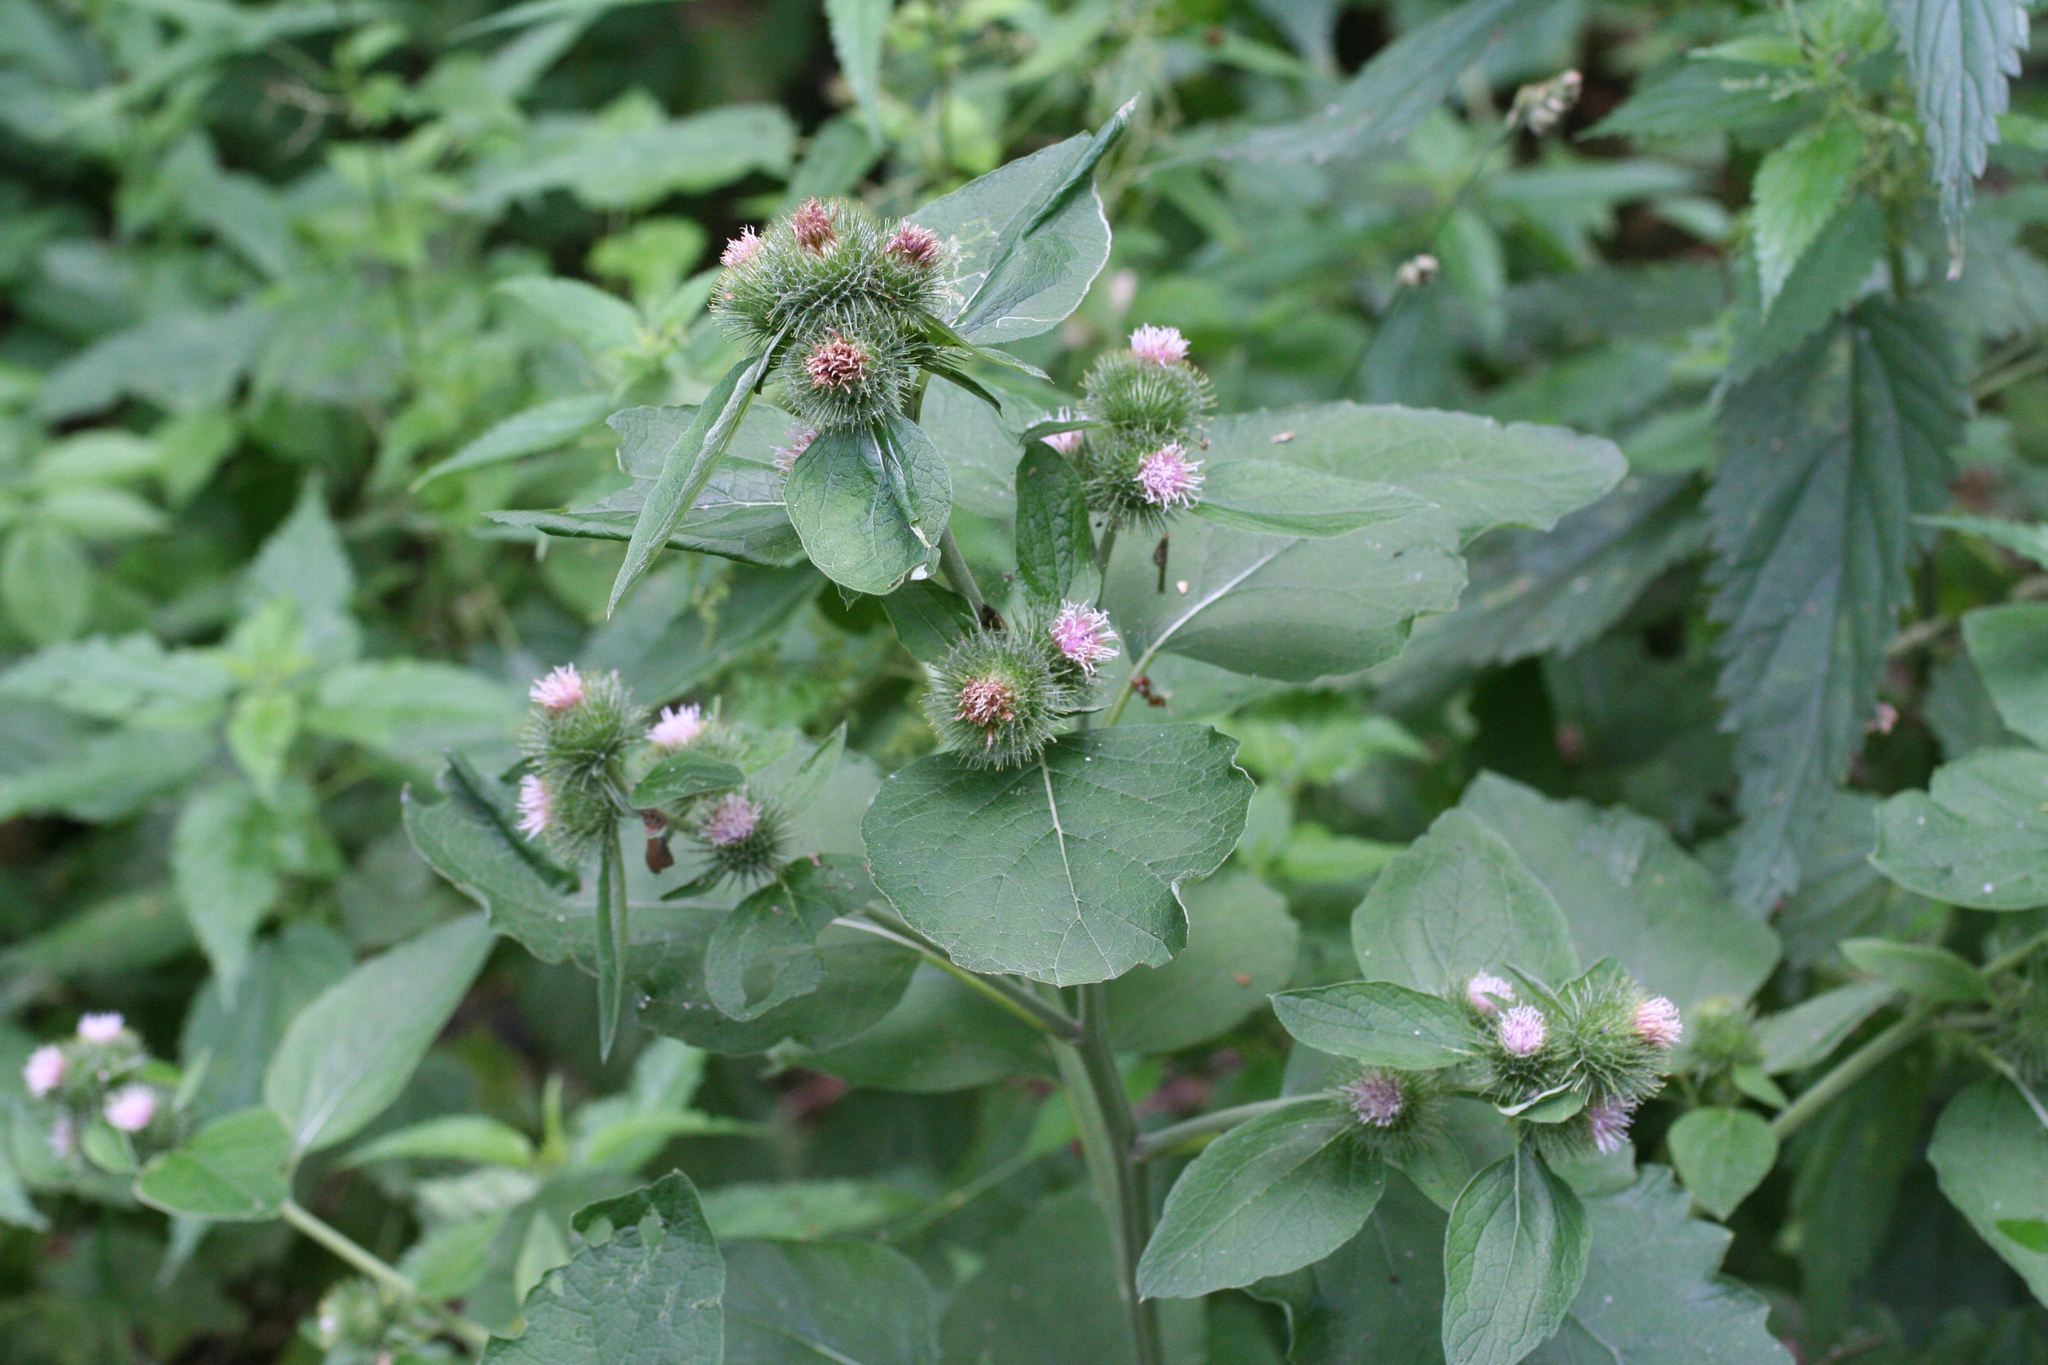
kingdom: Plantae
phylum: Tracheophyta
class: Magnoliopsida
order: Asterales
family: Asteraceae
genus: Arctium
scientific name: Arctium minus
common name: Lesser burdock
